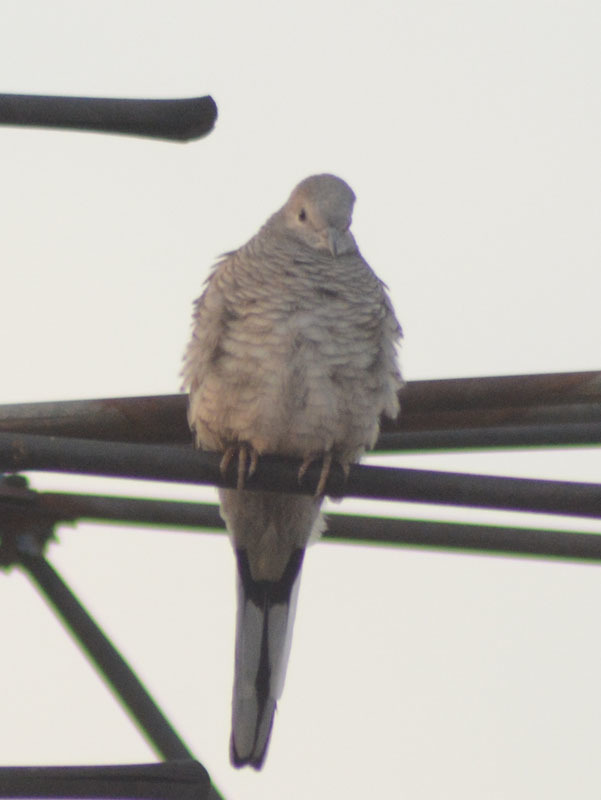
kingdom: Animalia
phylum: Chordata
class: Aves
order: Columbiformes
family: Columbidae
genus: Columbina
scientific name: Columbina inca
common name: Inca dove
